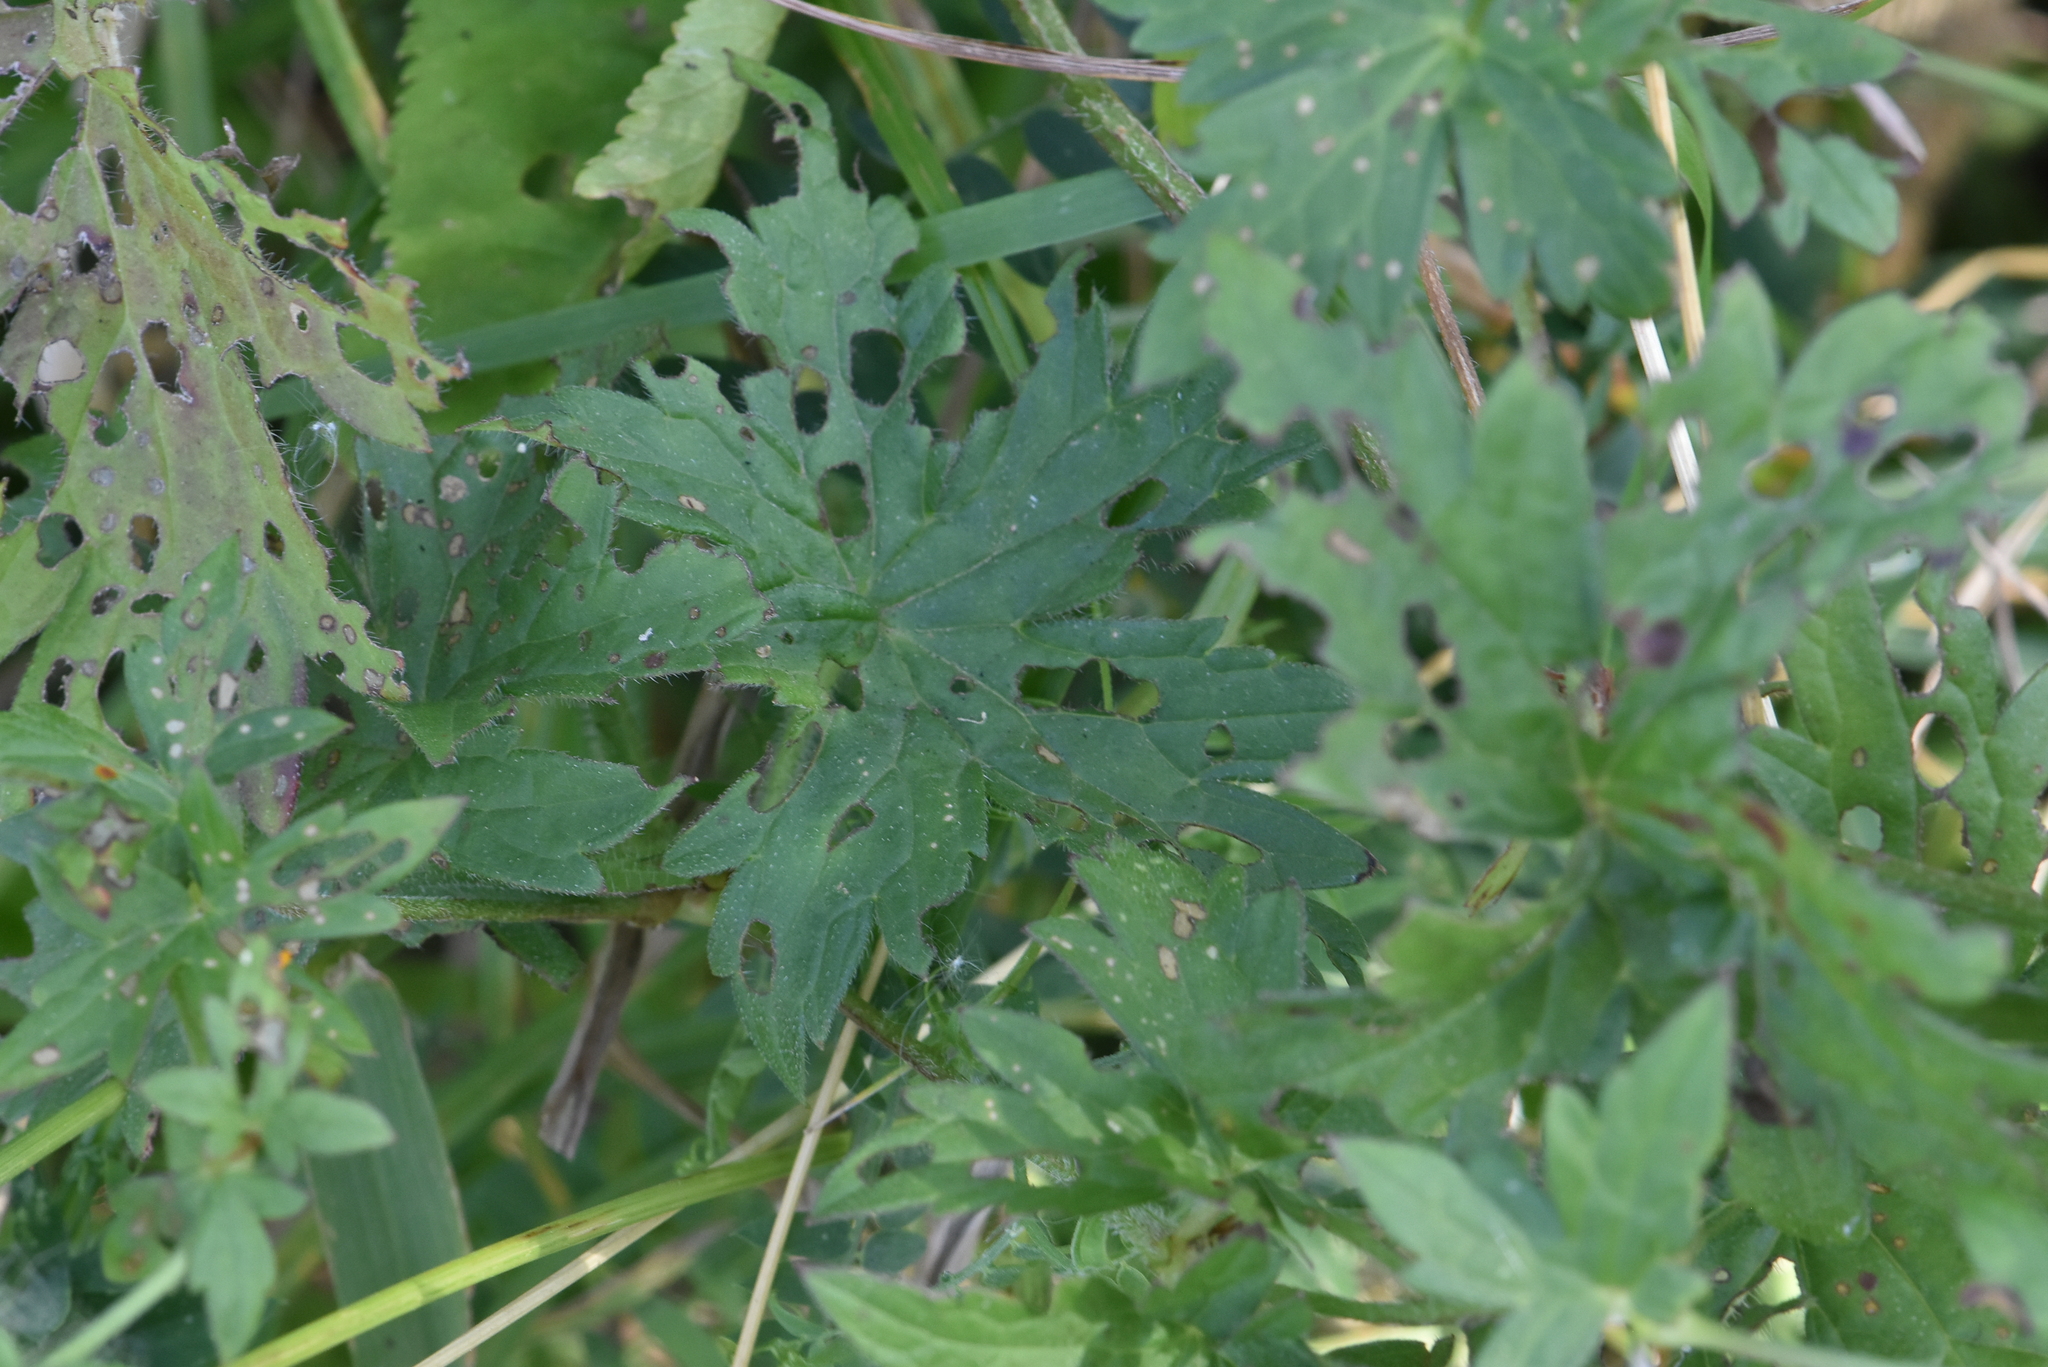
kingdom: Plantae
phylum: Tracheophyta
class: Magnoliopsida
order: Geraniales
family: Geraniaceae
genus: Geranium
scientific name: Geranium palustre
